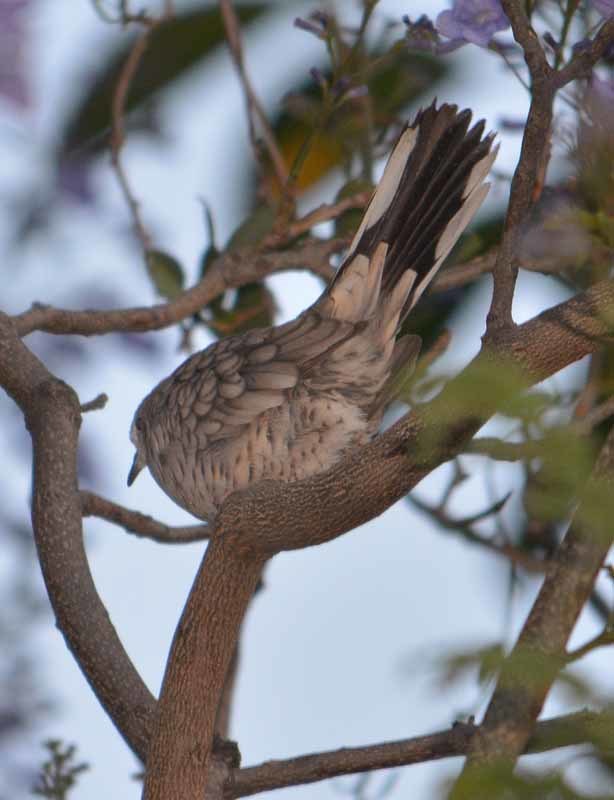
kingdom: Animalia
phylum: Chordata
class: Aves
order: Columbiformes
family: Columbidae
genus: Columbina
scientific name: Columbina inca
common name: Inca dove
